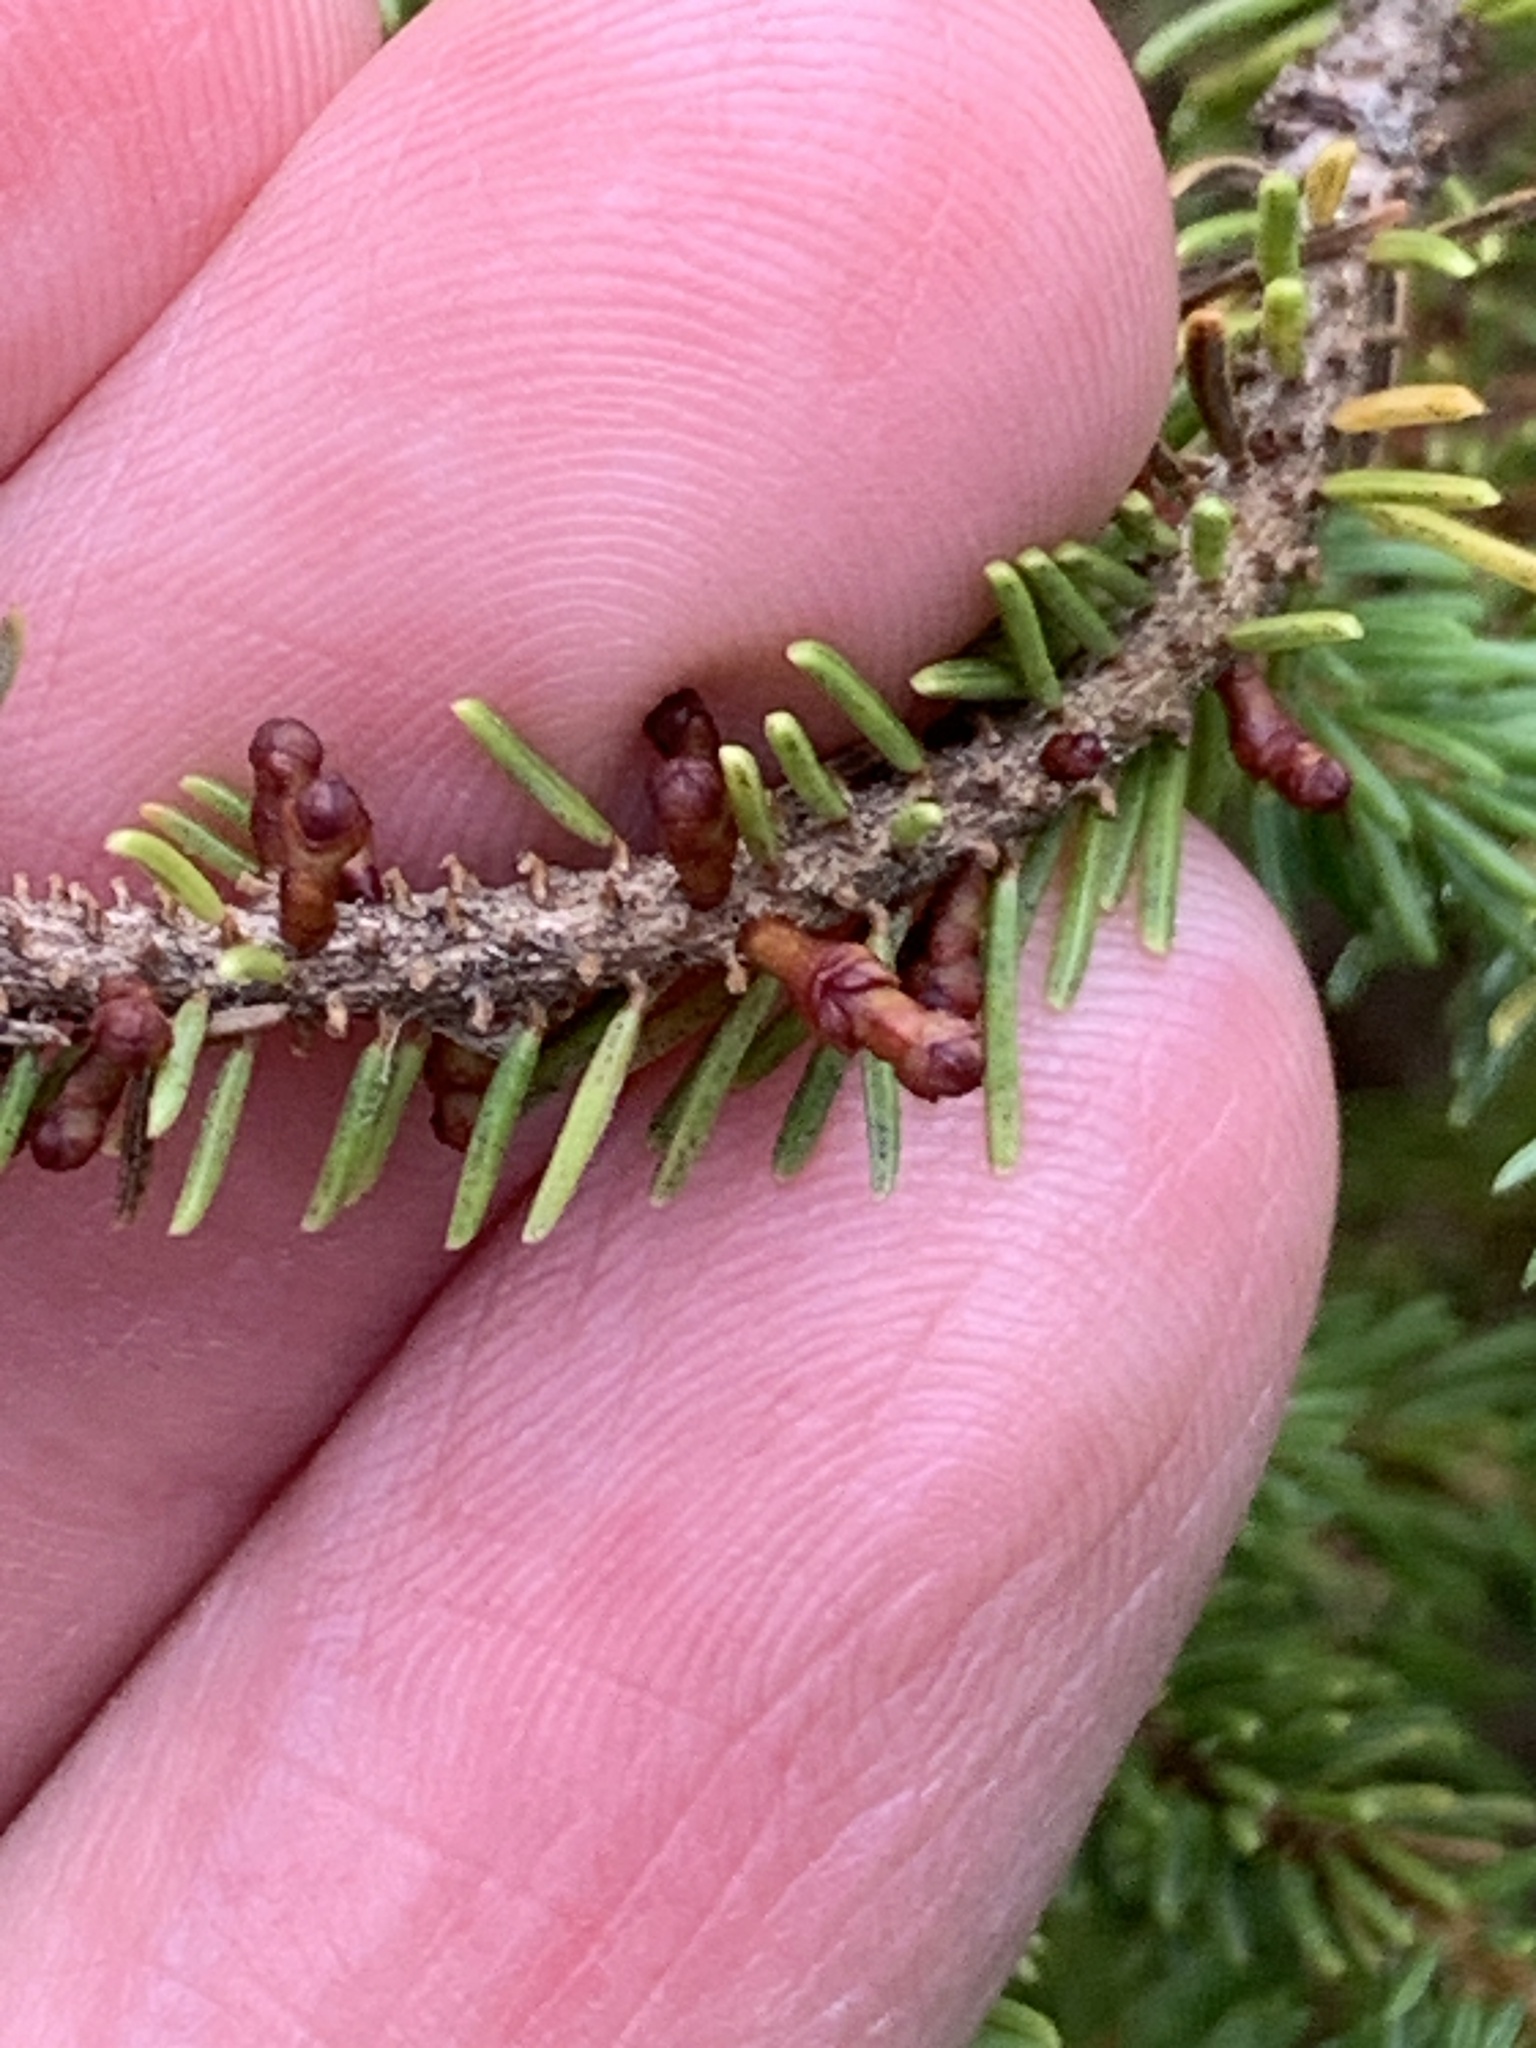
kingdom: Plantae
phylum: Tracheophyta
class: Magnoliopsida
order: Santalales
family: Viscaceae
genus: Arceuthobium
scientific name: Arceuthobium pusillum
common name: Dwarf-mistletoe
